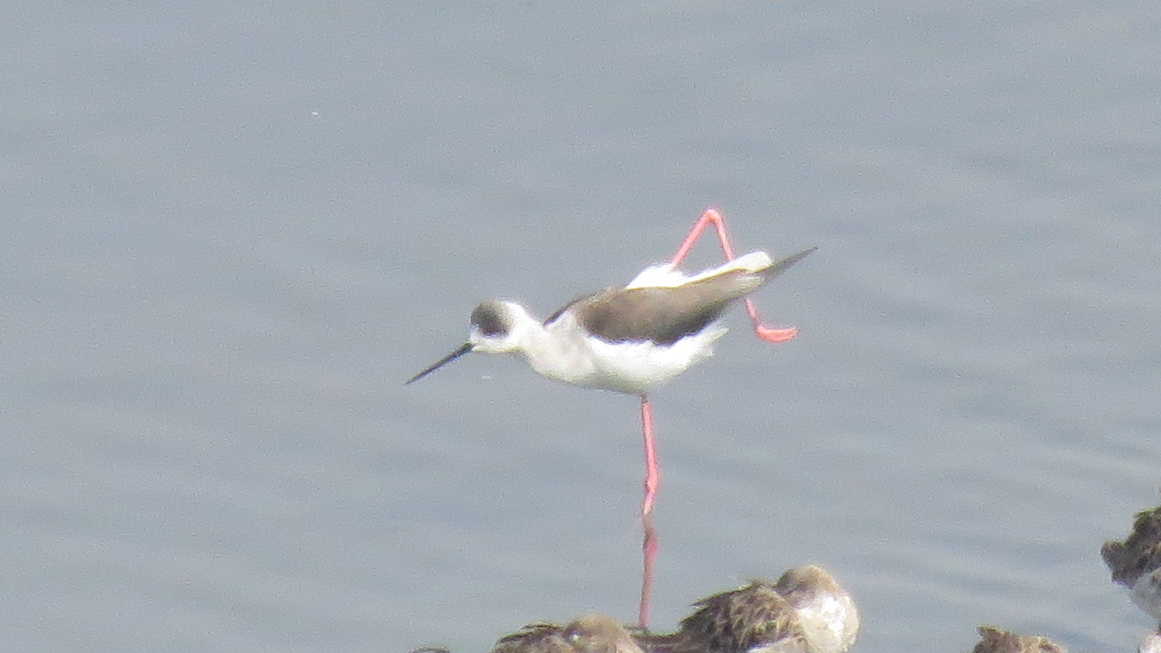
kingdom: Animalia
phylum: Chordata
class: Aves
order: Charadriiformes
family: Recurvirostridae
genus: Himantopus
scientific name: Himantopus himantopus
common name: Black-winged stilt
